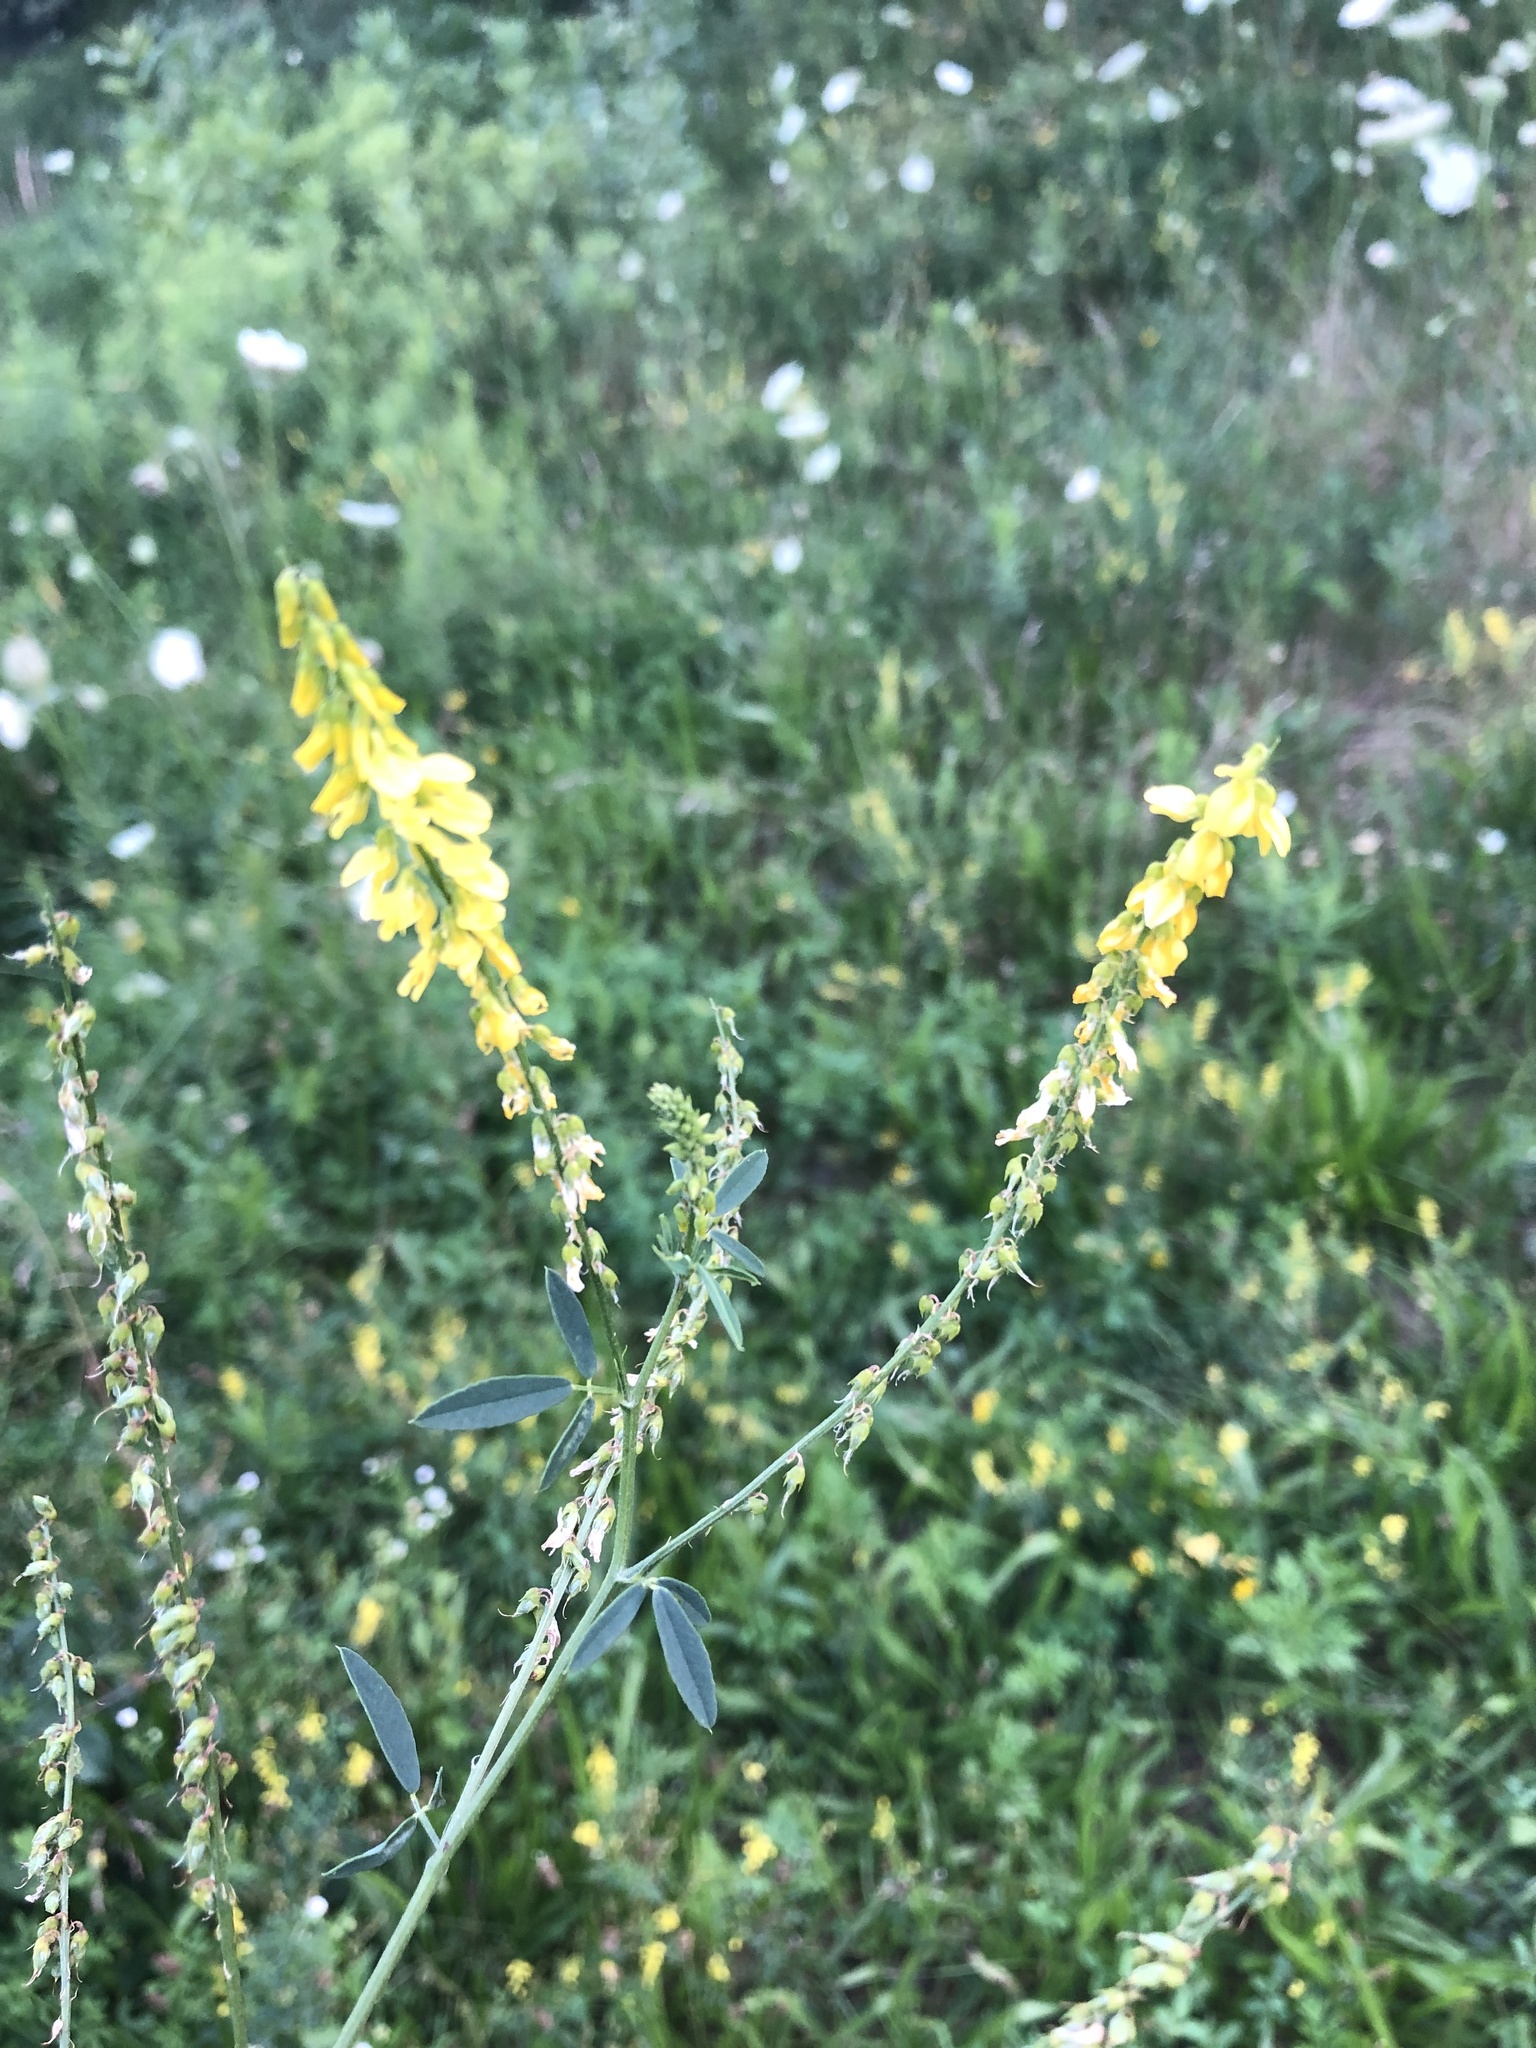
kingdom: Plantae
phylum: Tracheophyta
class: Magnoliopsida
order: Fabales
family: Fabaceae
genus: Melilotus
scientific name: Melilotus officinalis
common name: Sweetclover
